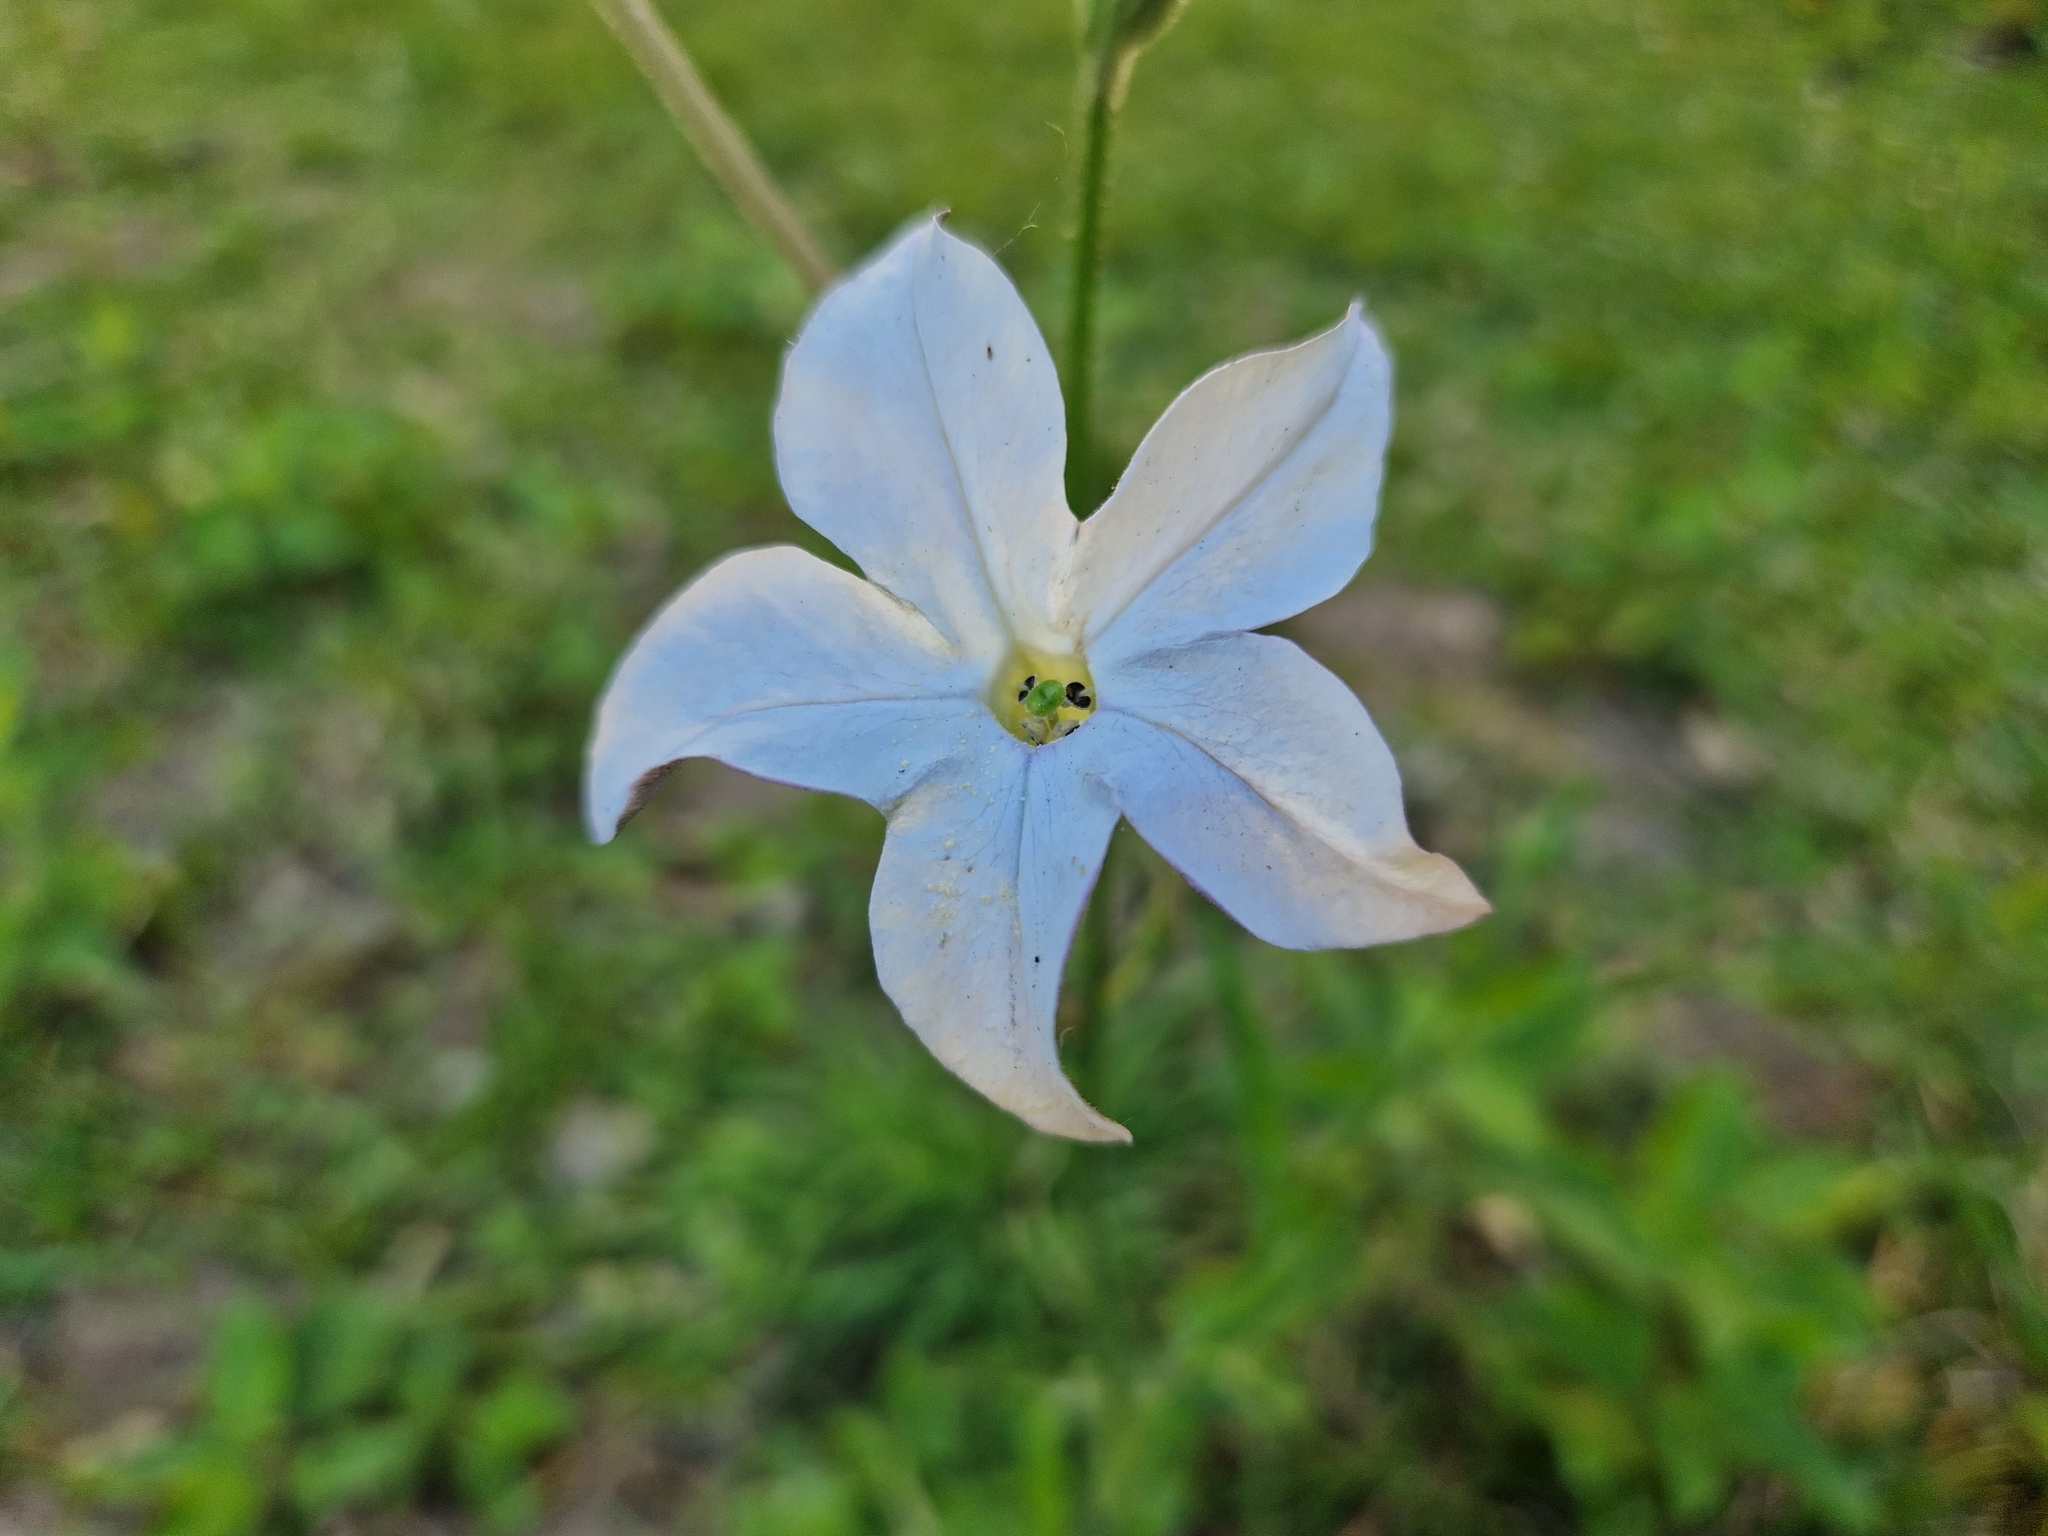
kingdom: Plantae
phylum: Tracheophyta
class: Magnoliopsida
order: Solanales
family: Solanaceae
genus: Nicotiana
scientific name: Nicotiana longiflora
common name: Long-flowered tobacco
